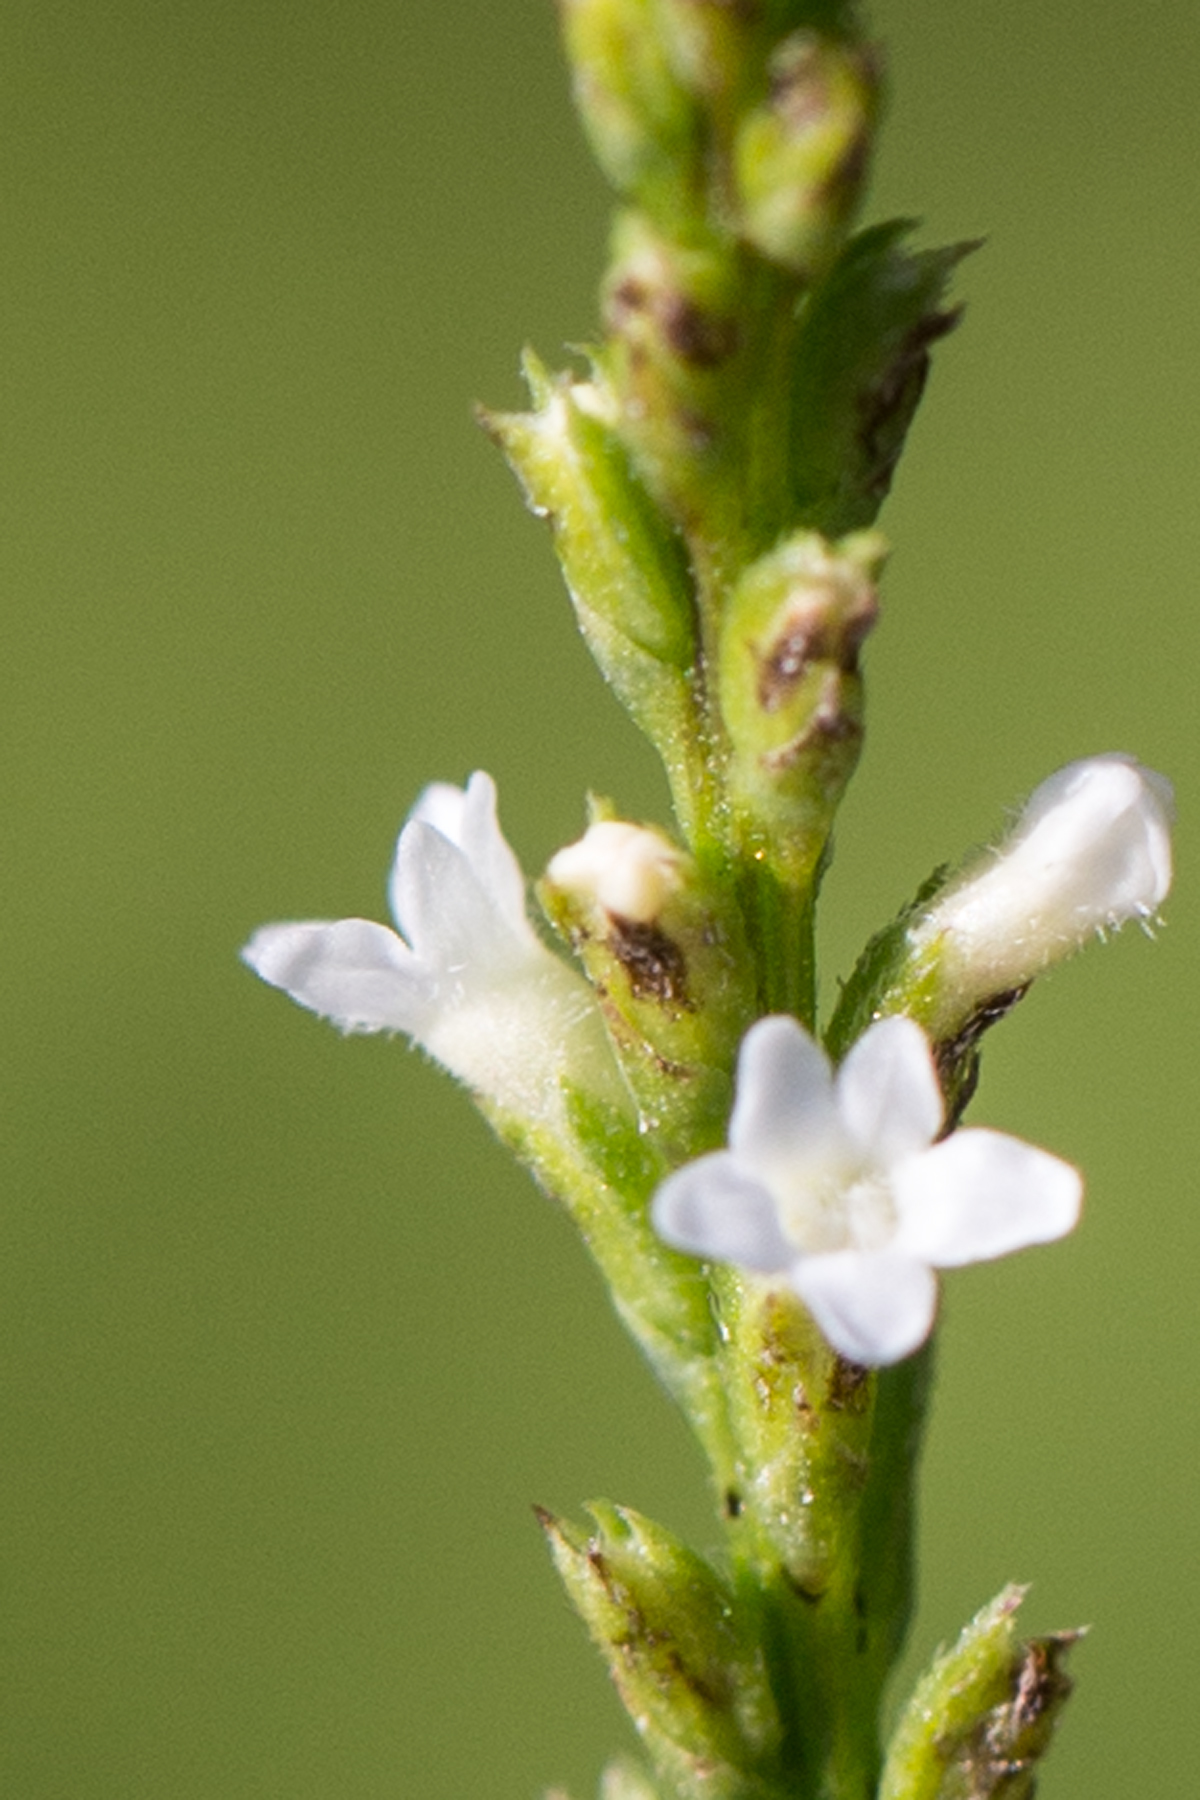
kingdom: Plantae
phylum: Tracheophyta
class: Magnoliopsida
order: Lamiales
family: Verbenaceae
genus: Verbena
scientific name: Verbena urticifolia
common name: Nettle-leaved vervain
